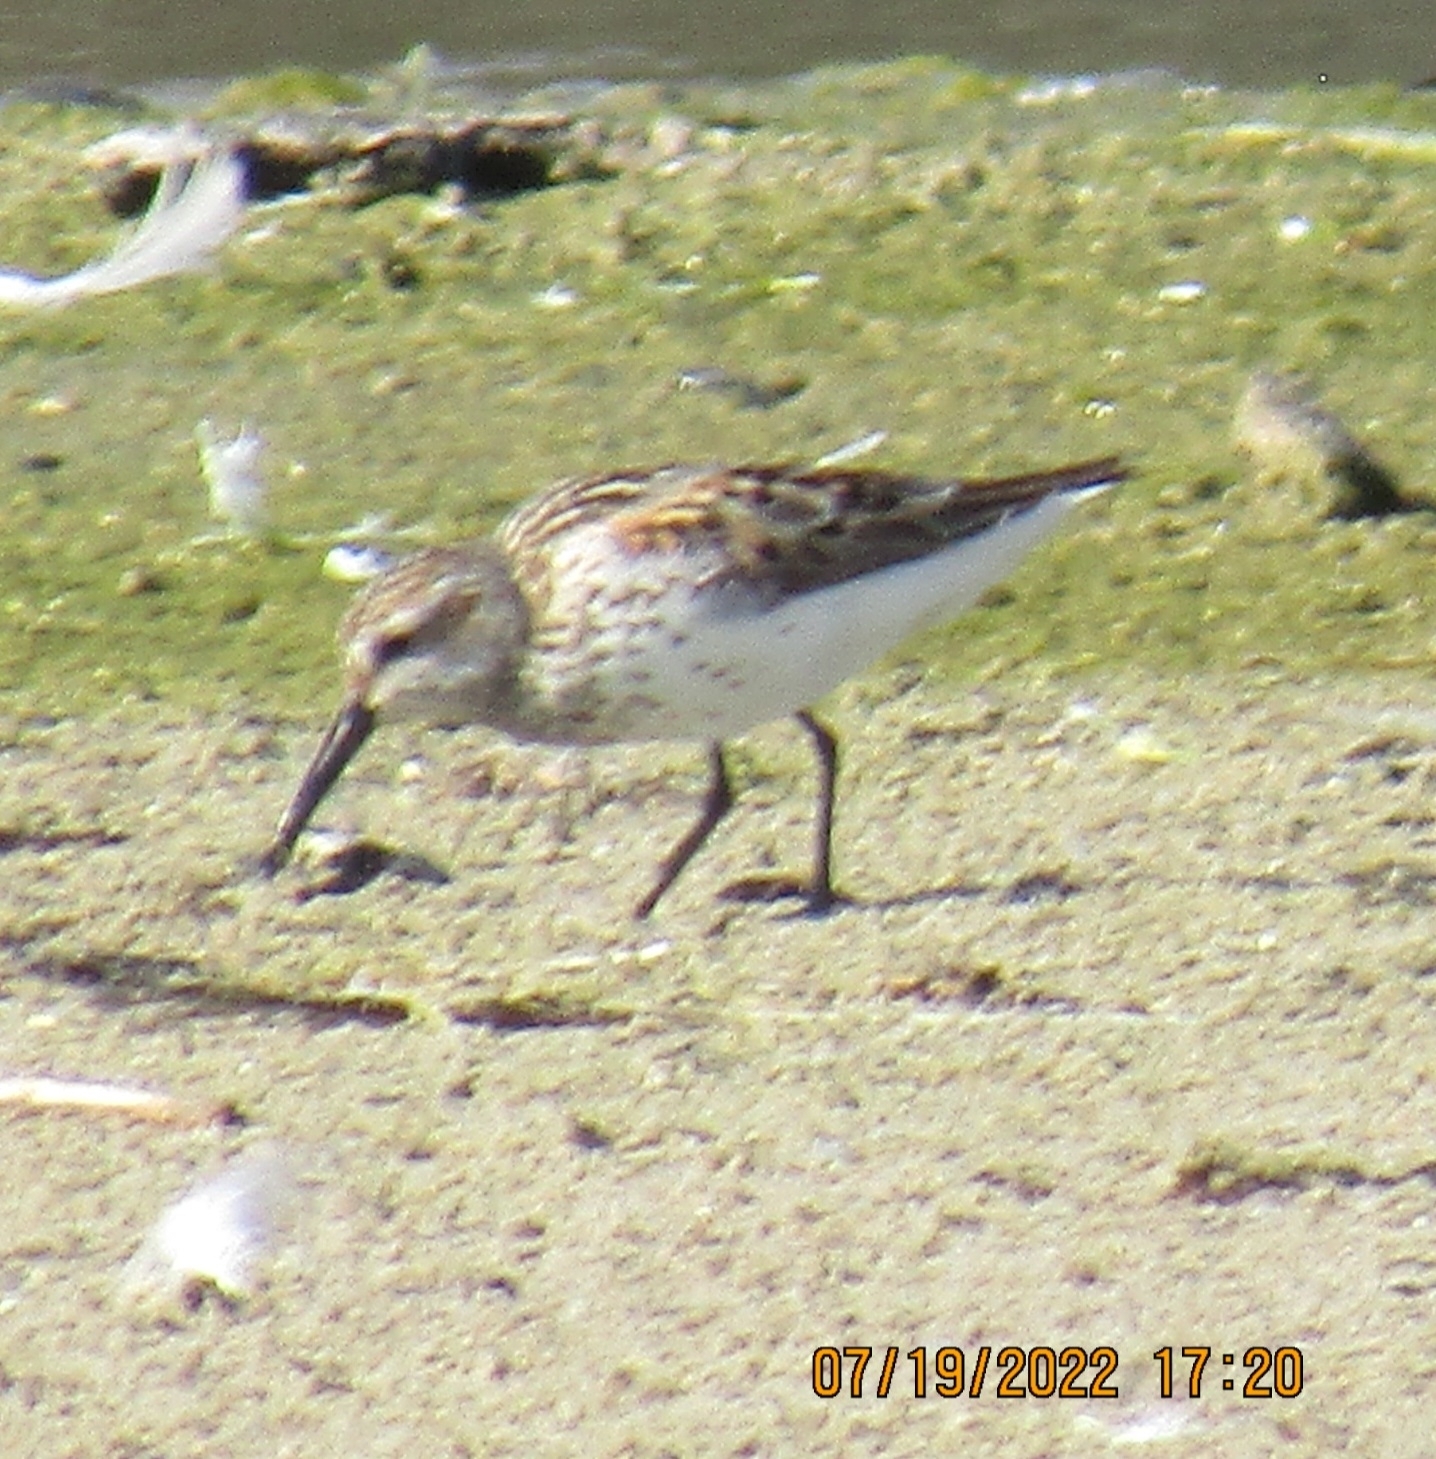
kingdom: Animalia
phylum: Chordata
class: Aves
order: Charadriiformes
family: Scolopacidae
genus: Calidris
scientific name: Calidris mauri
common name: Western sandpiper
